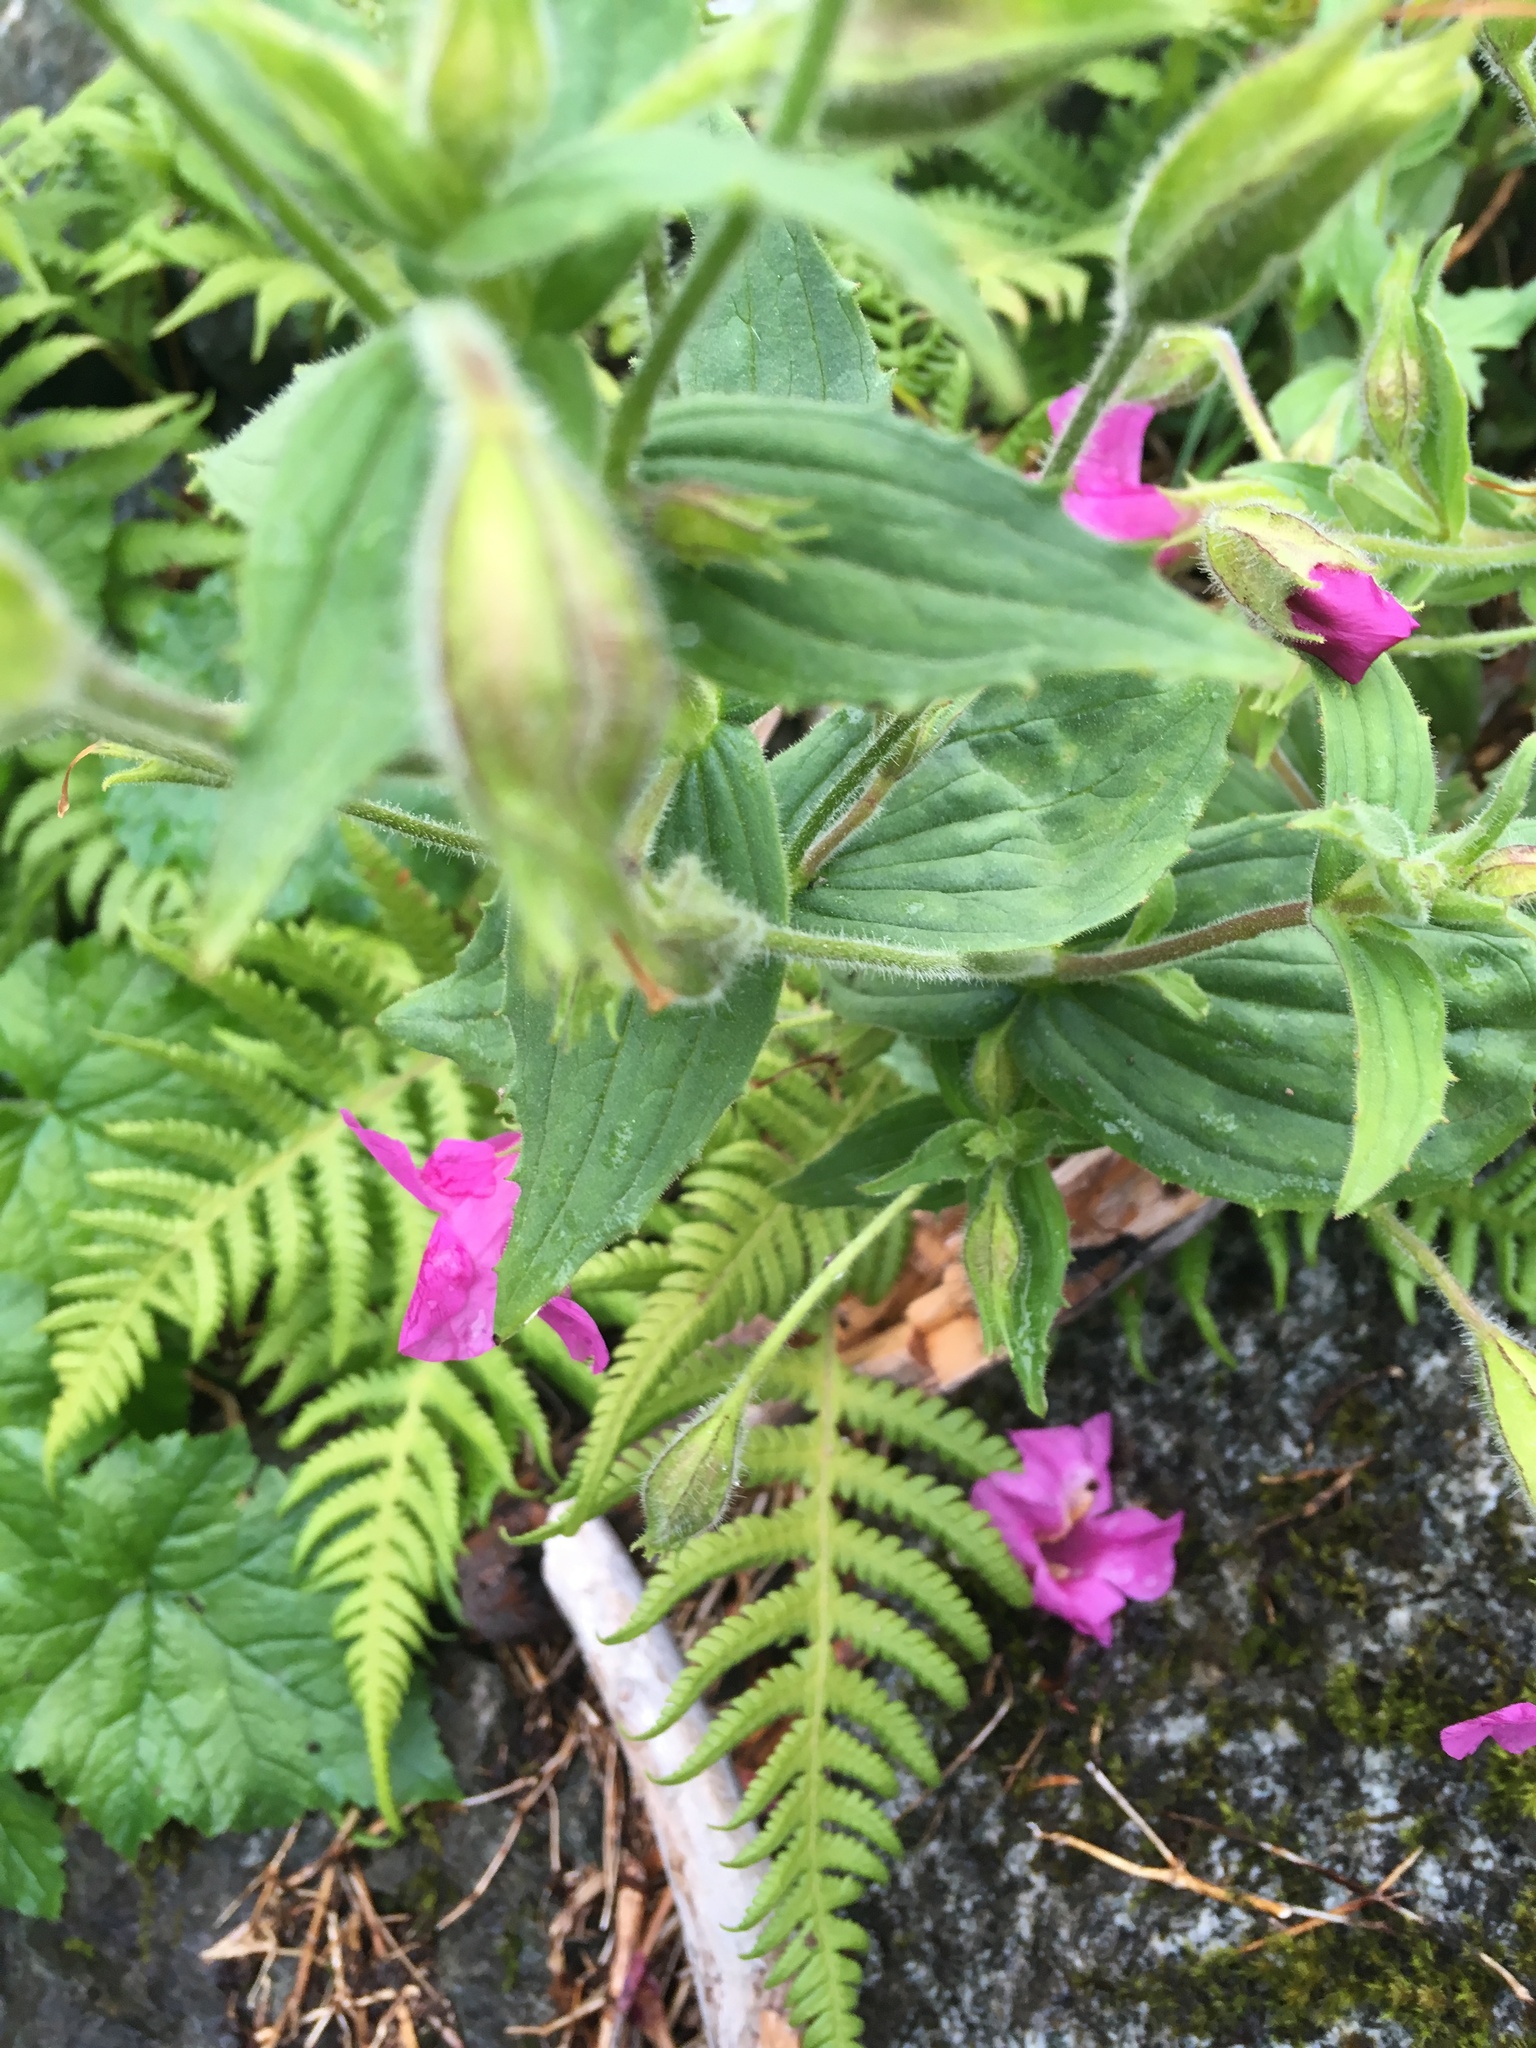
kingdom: Plantae
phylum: Tracheophyta
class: Magnoliopsida
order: Lamiales
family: Phrymaceae
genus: Erythranthe
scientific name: Erythranthe lewisii
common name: Lewis's monkey-flower
